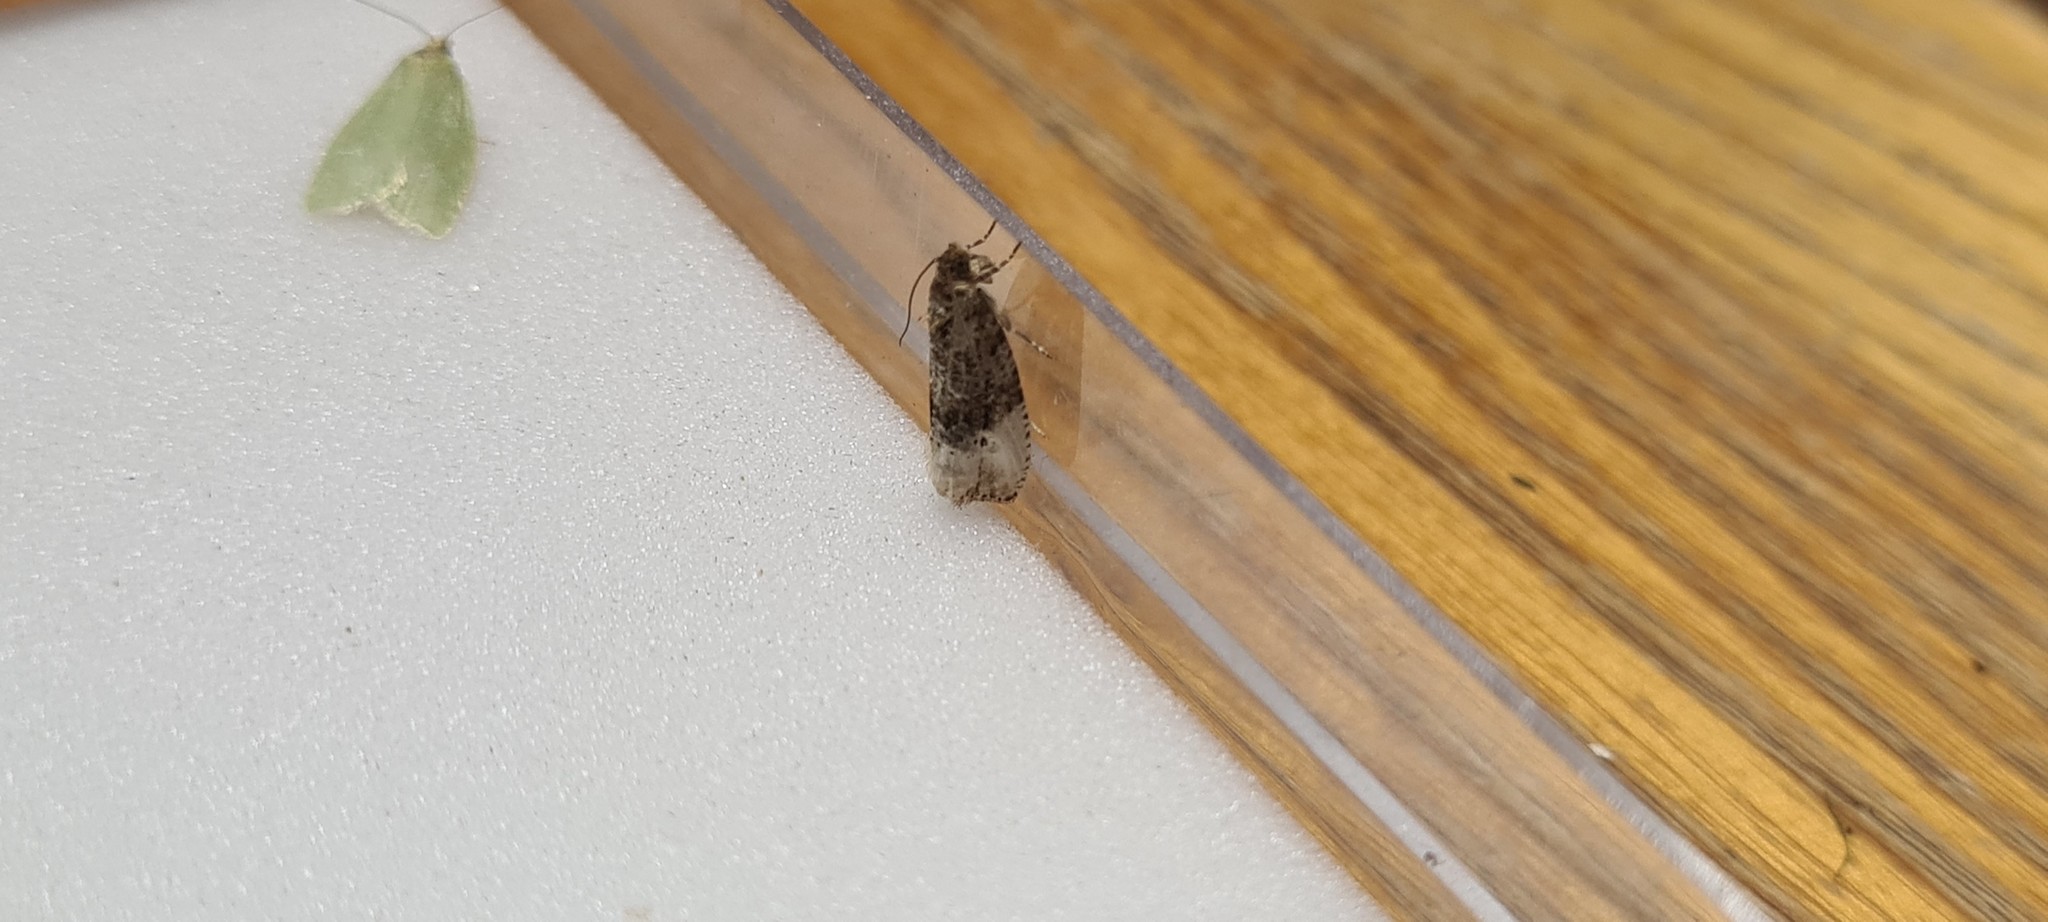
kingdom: Animalia
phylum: Arthropoda
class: Insecta
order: Lepidoptera
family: Tortricidae
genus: Hedya
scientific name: Hedya nubiferana
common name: Marbled orchard tortrix
